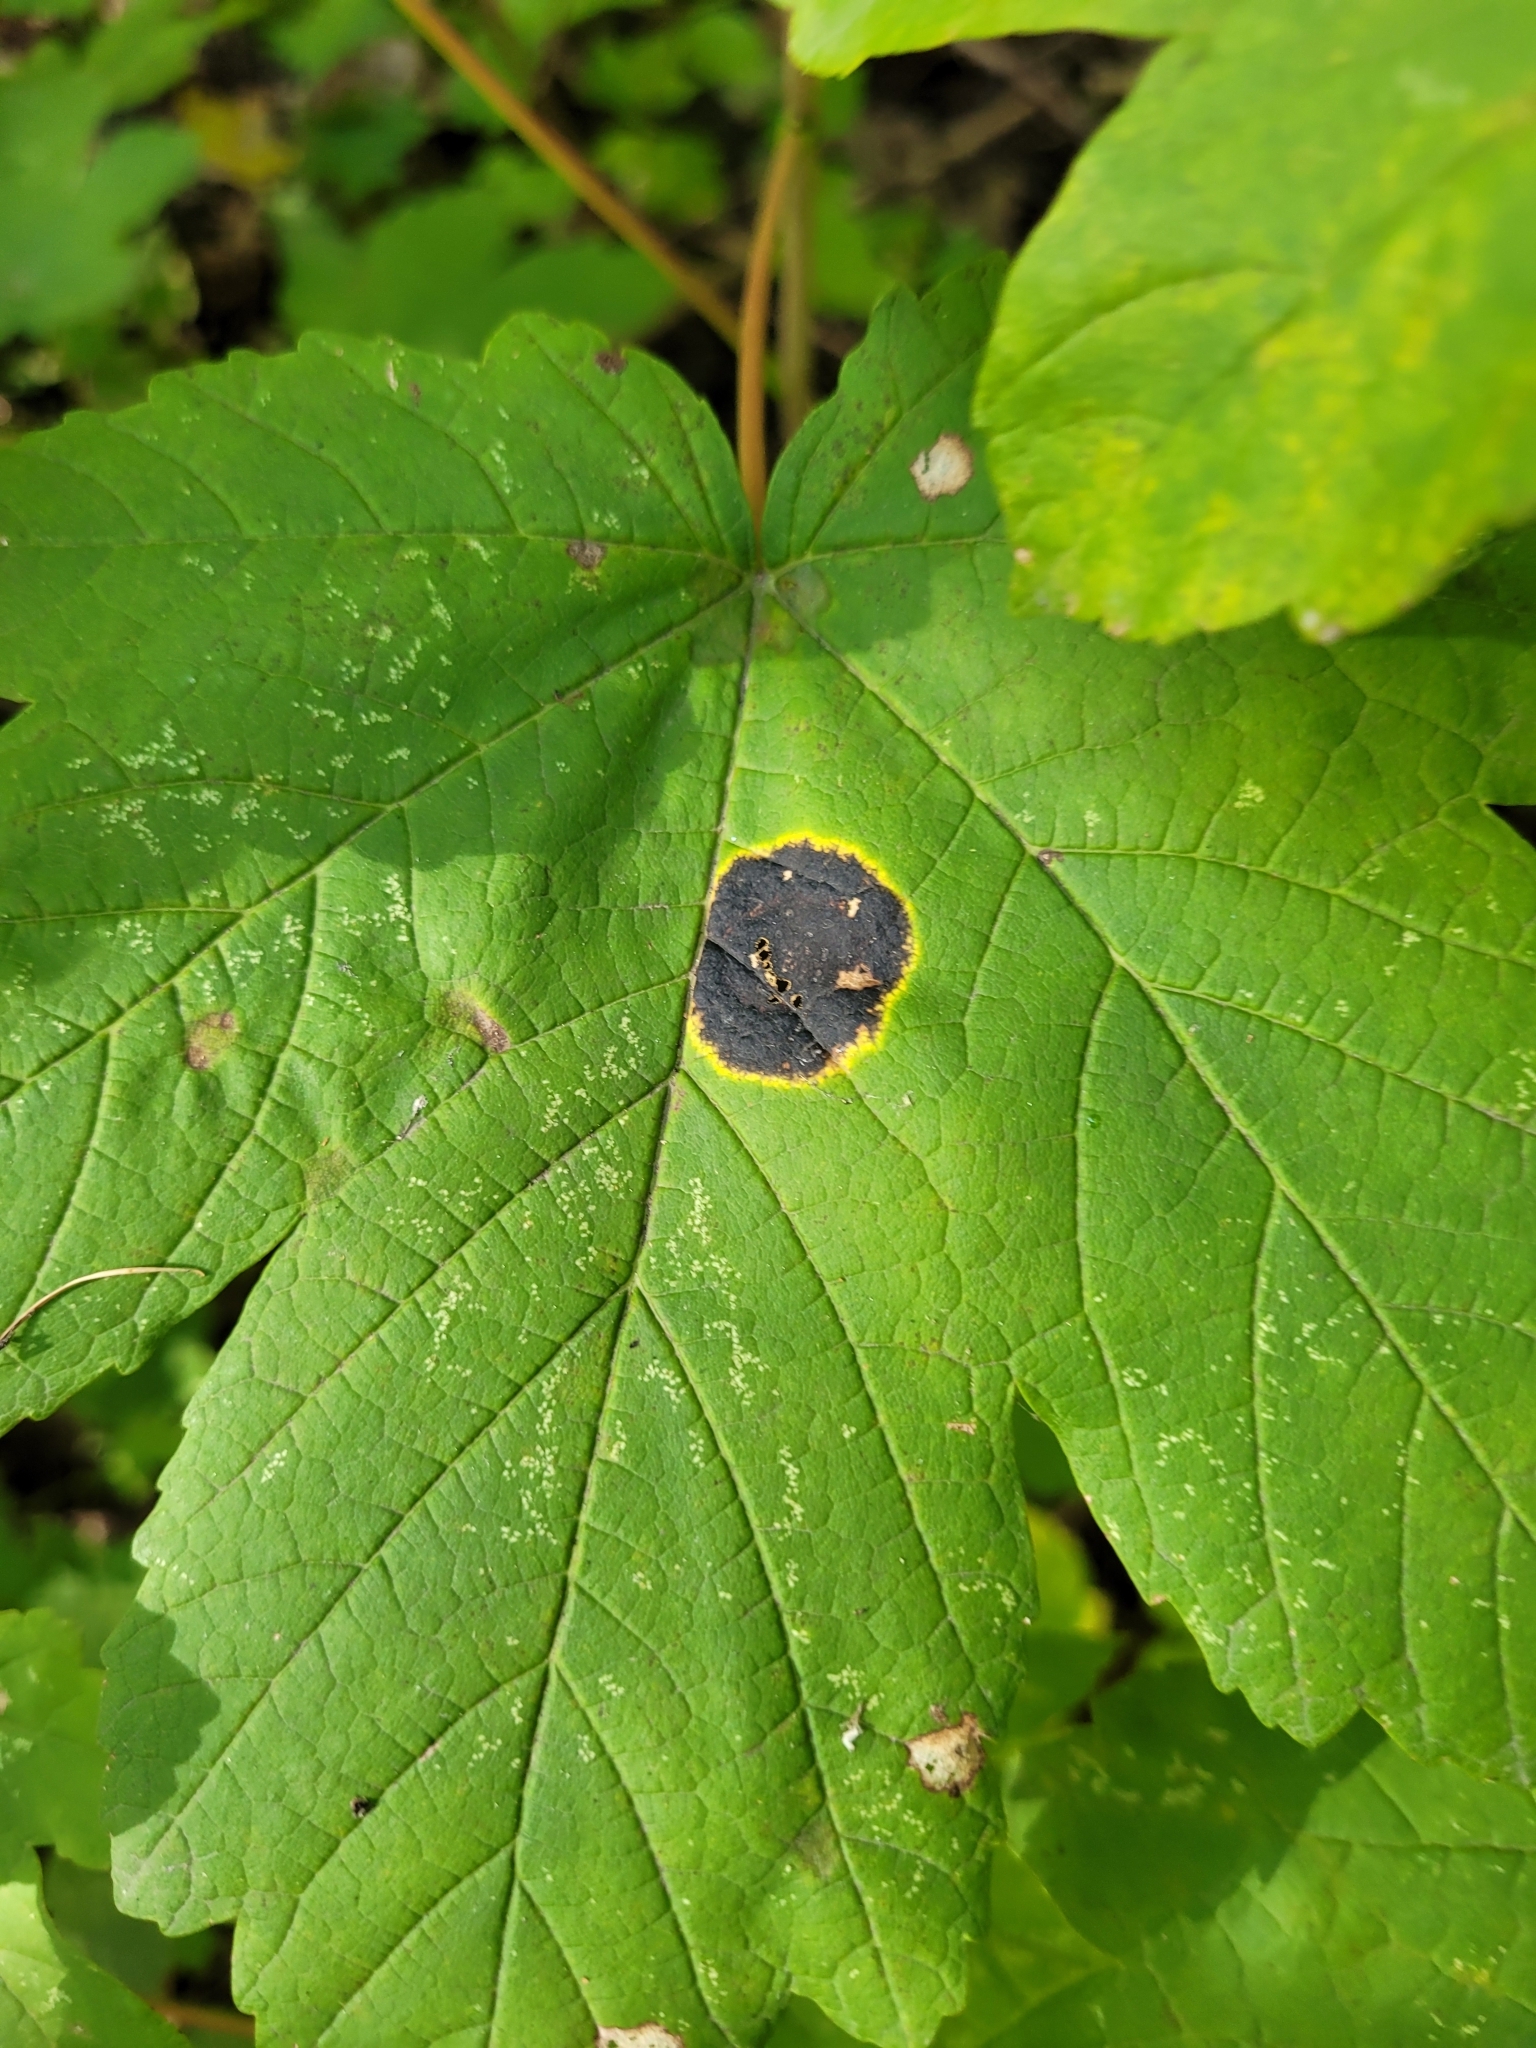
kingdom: Fungi
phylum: Ascomycota
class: Leotiomycetes
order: Rhytismatales
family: Rhytismataceae
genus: Rhytisma
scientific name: Rhytisma acerinum
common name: European tar spot
